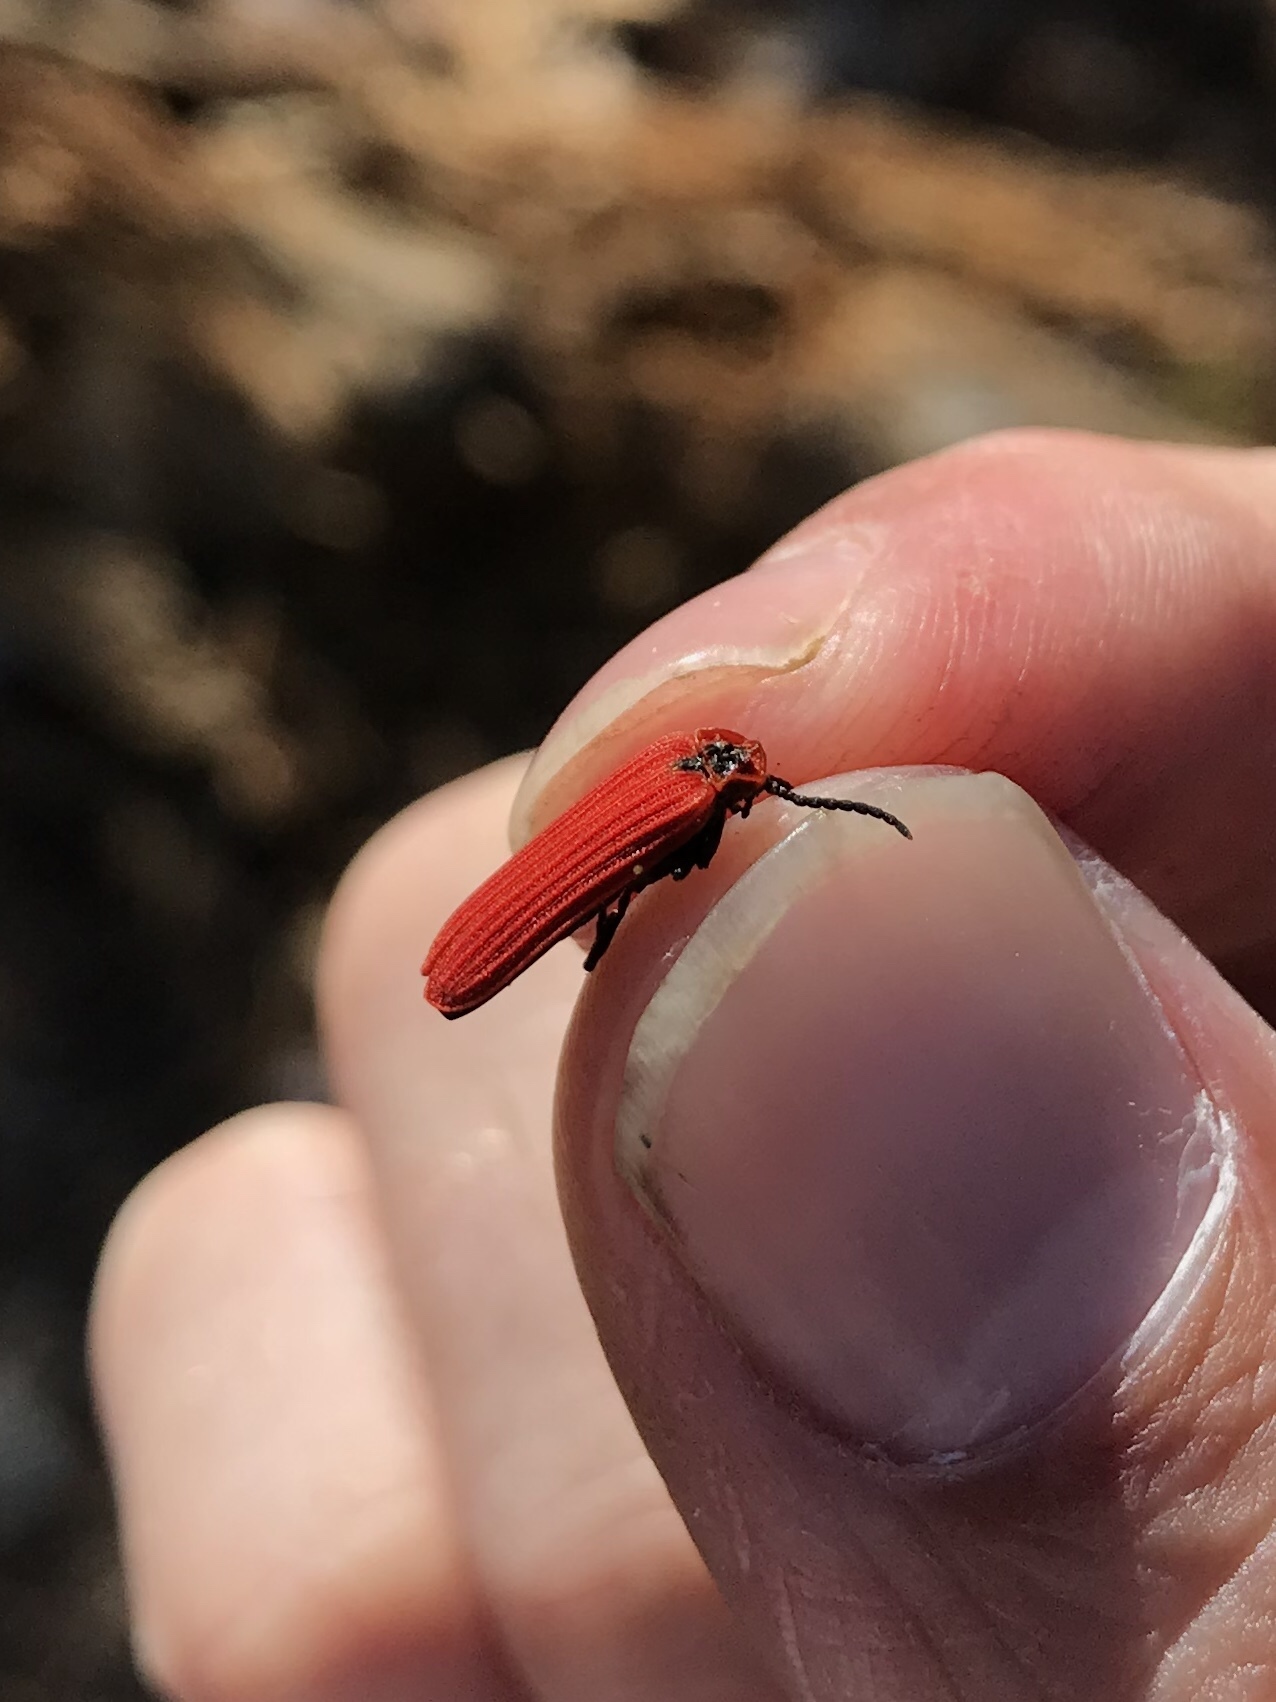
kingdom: Animalia
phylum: Arthropoda
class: Insecta
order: Coleoptera
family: Lycidae
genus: Dictyoptera
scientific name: Dictyoptera aurora
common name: Golden net-winged beetle
